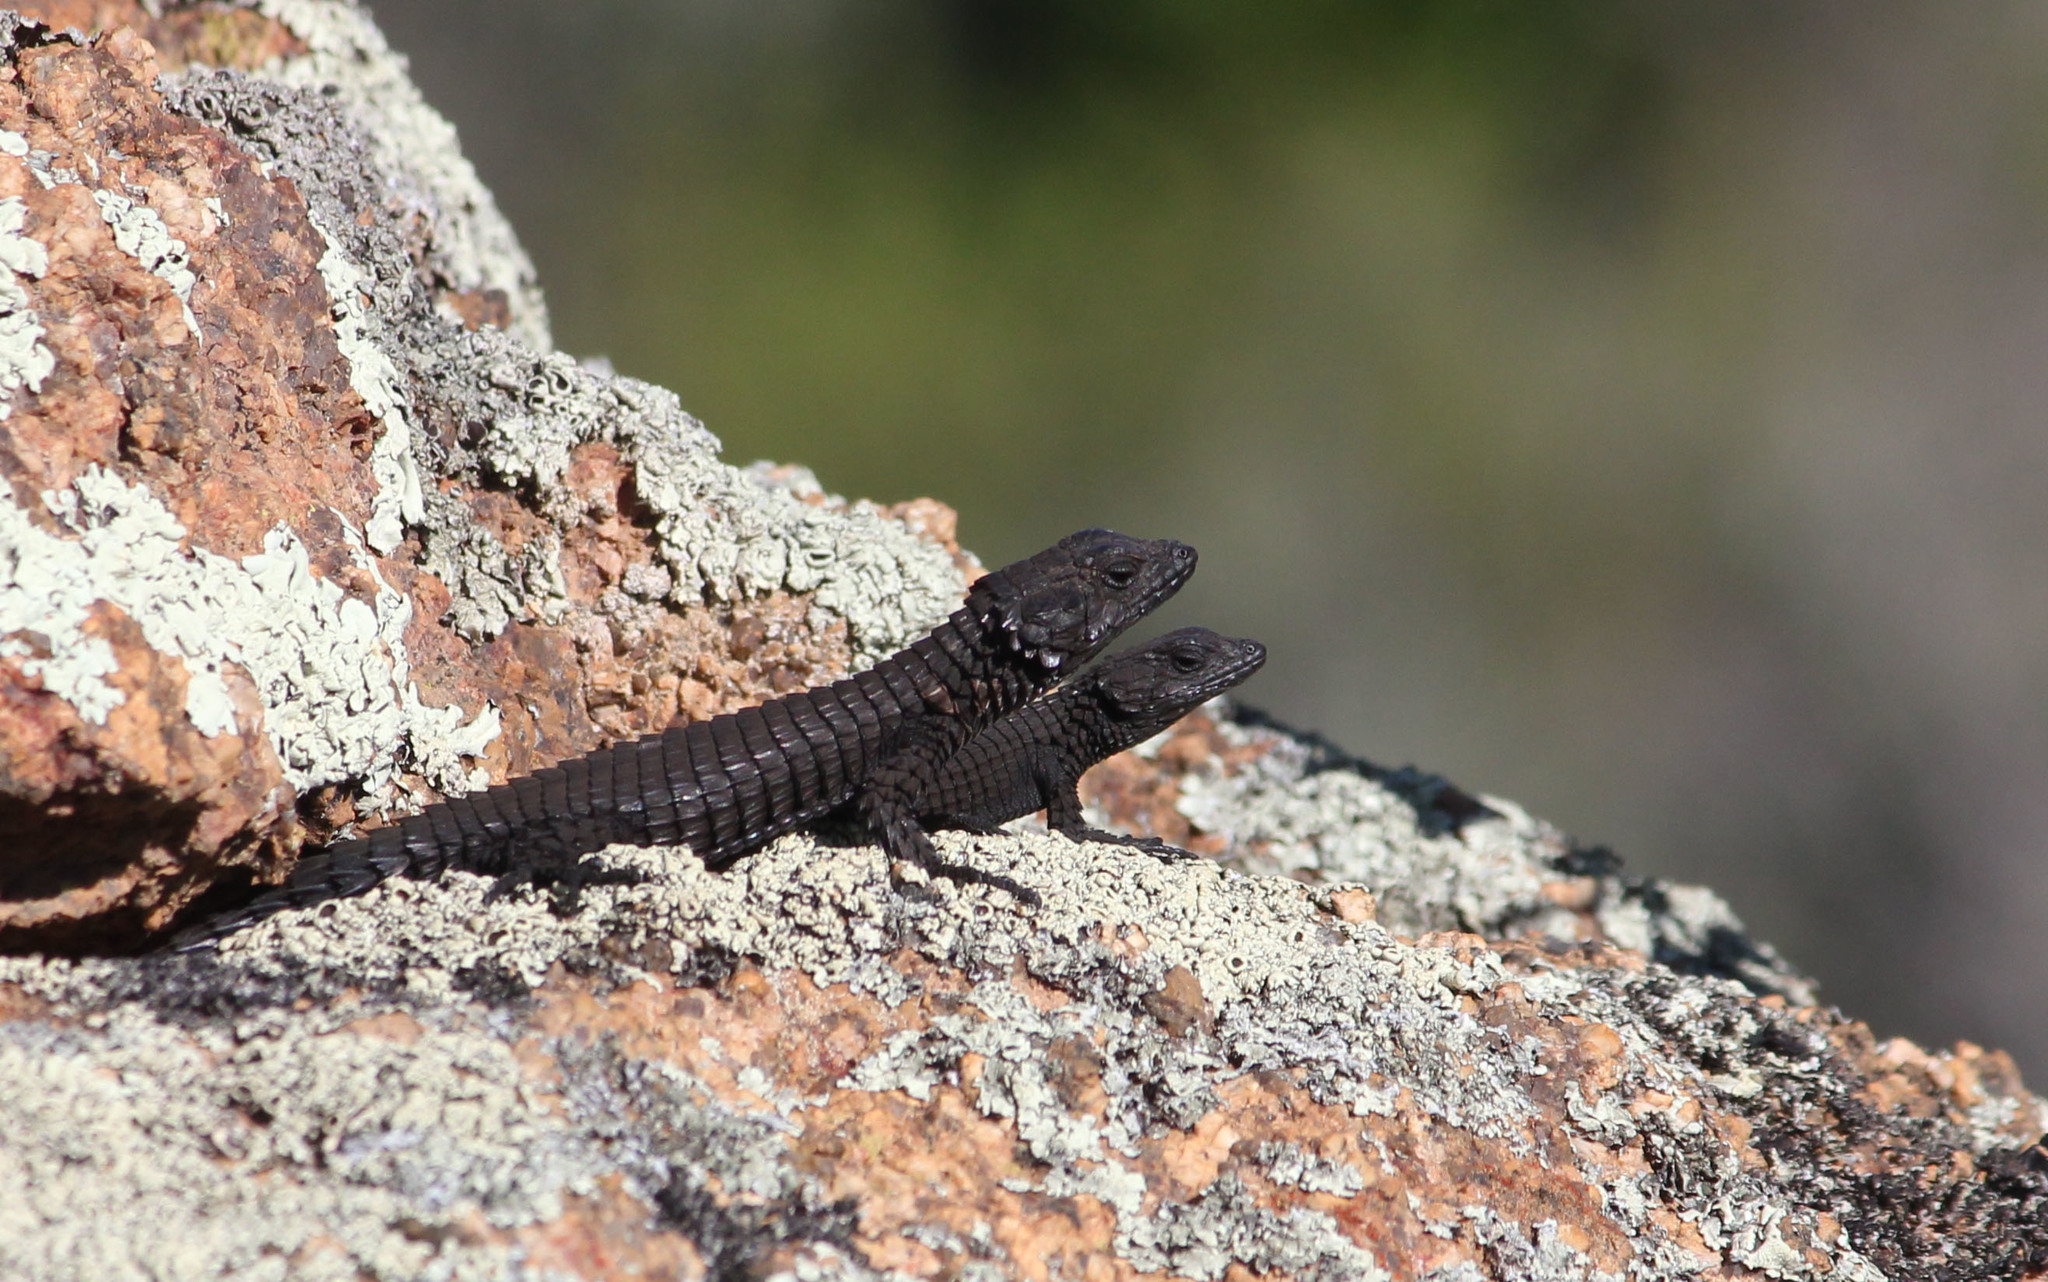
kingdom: Animalia
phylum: Chordata
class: Squamata
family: Cordylidae
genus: Namazonurus
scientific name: Namazonurus peersi
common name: Peers' girdled lizard
